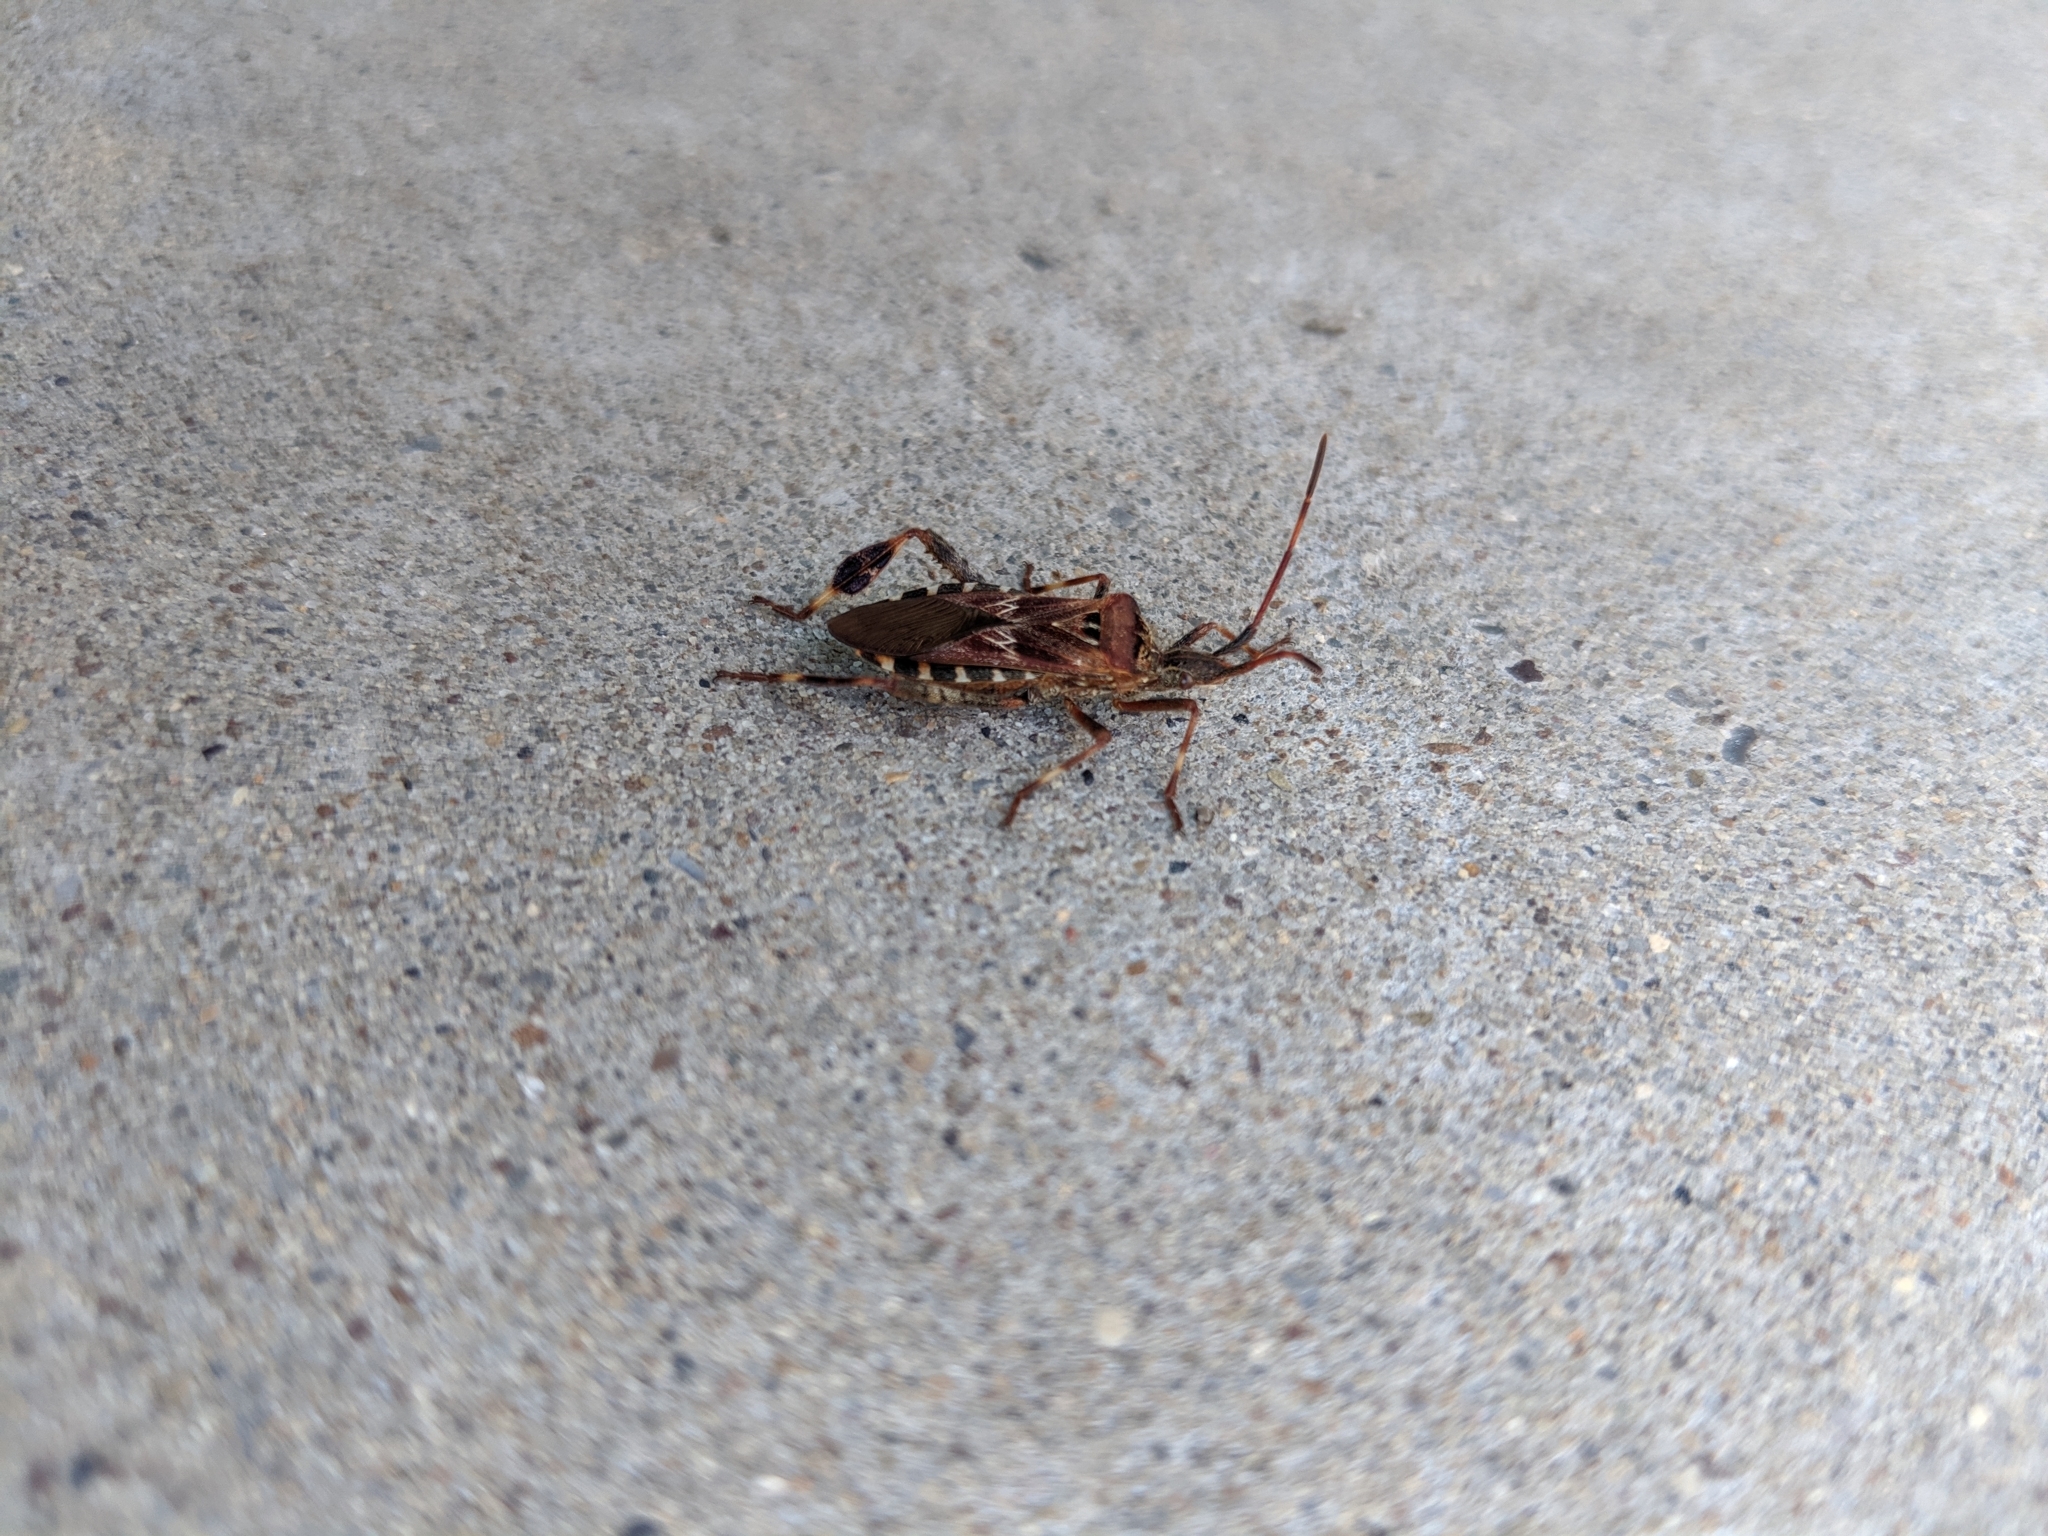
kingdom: Animalia
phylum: Arthropoda
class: Insecta
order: Hemiptera
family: Coreidae
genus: Leptoglossus
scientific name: Leptoglossus occidentalis
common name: Western conifer-seed bug
